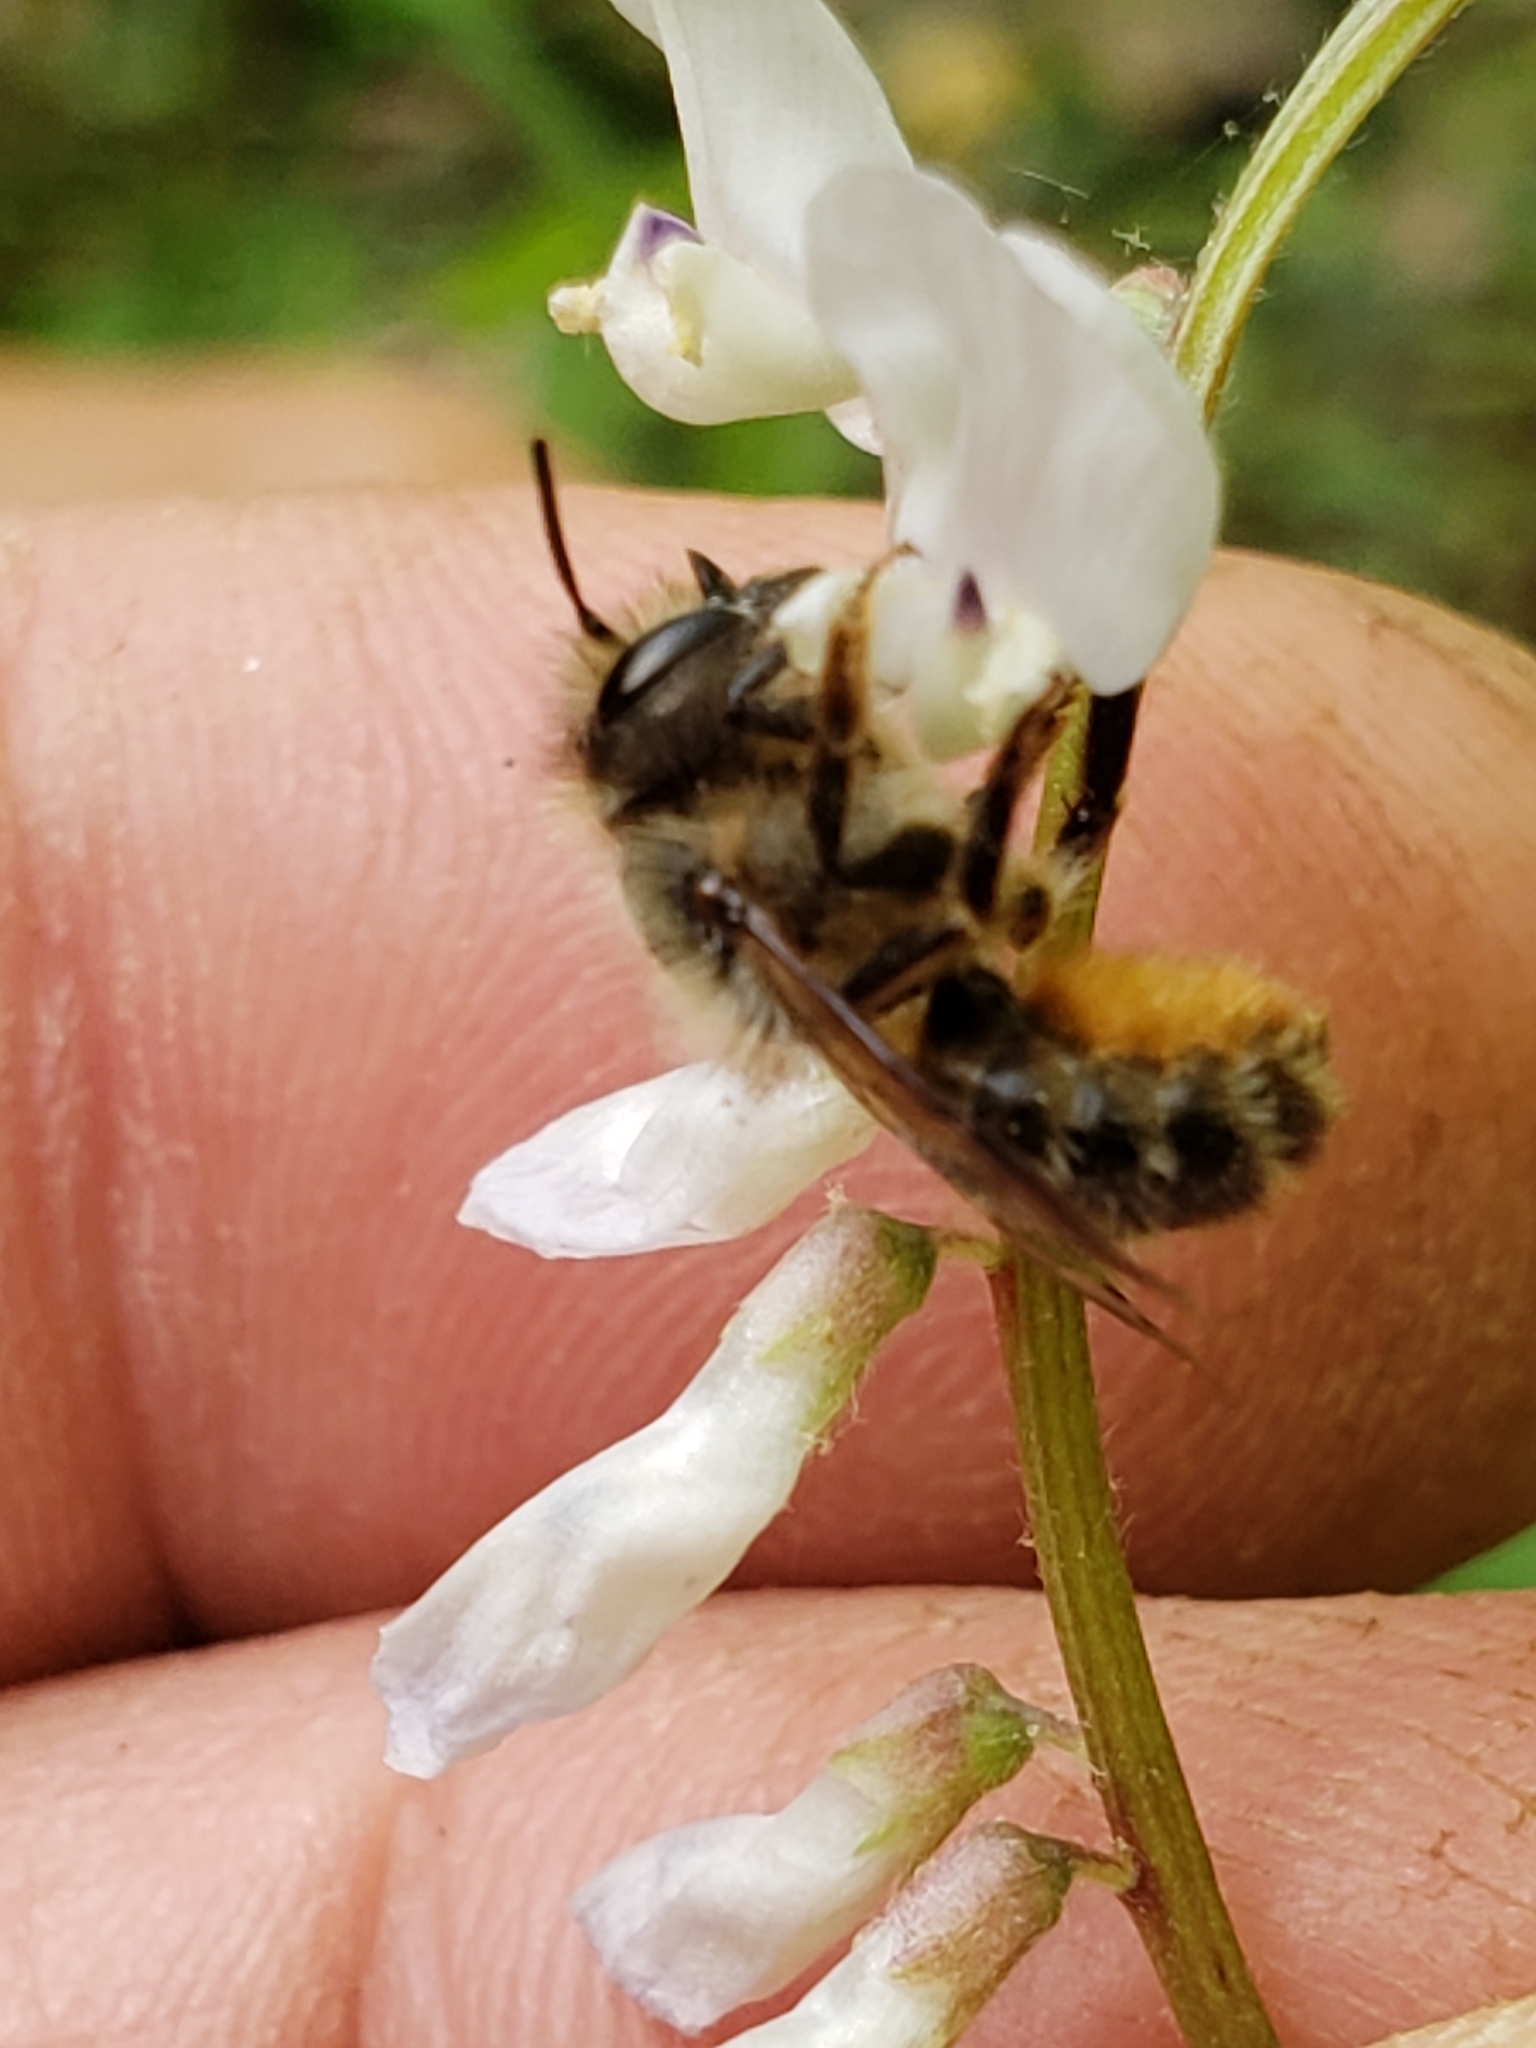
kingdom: Animalia
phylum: Arthropoda
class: Insecta
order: Hymenoptera
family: Megachilidae
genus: Osmia
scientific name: Osmia cornifrons
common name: Horn-faced bee
